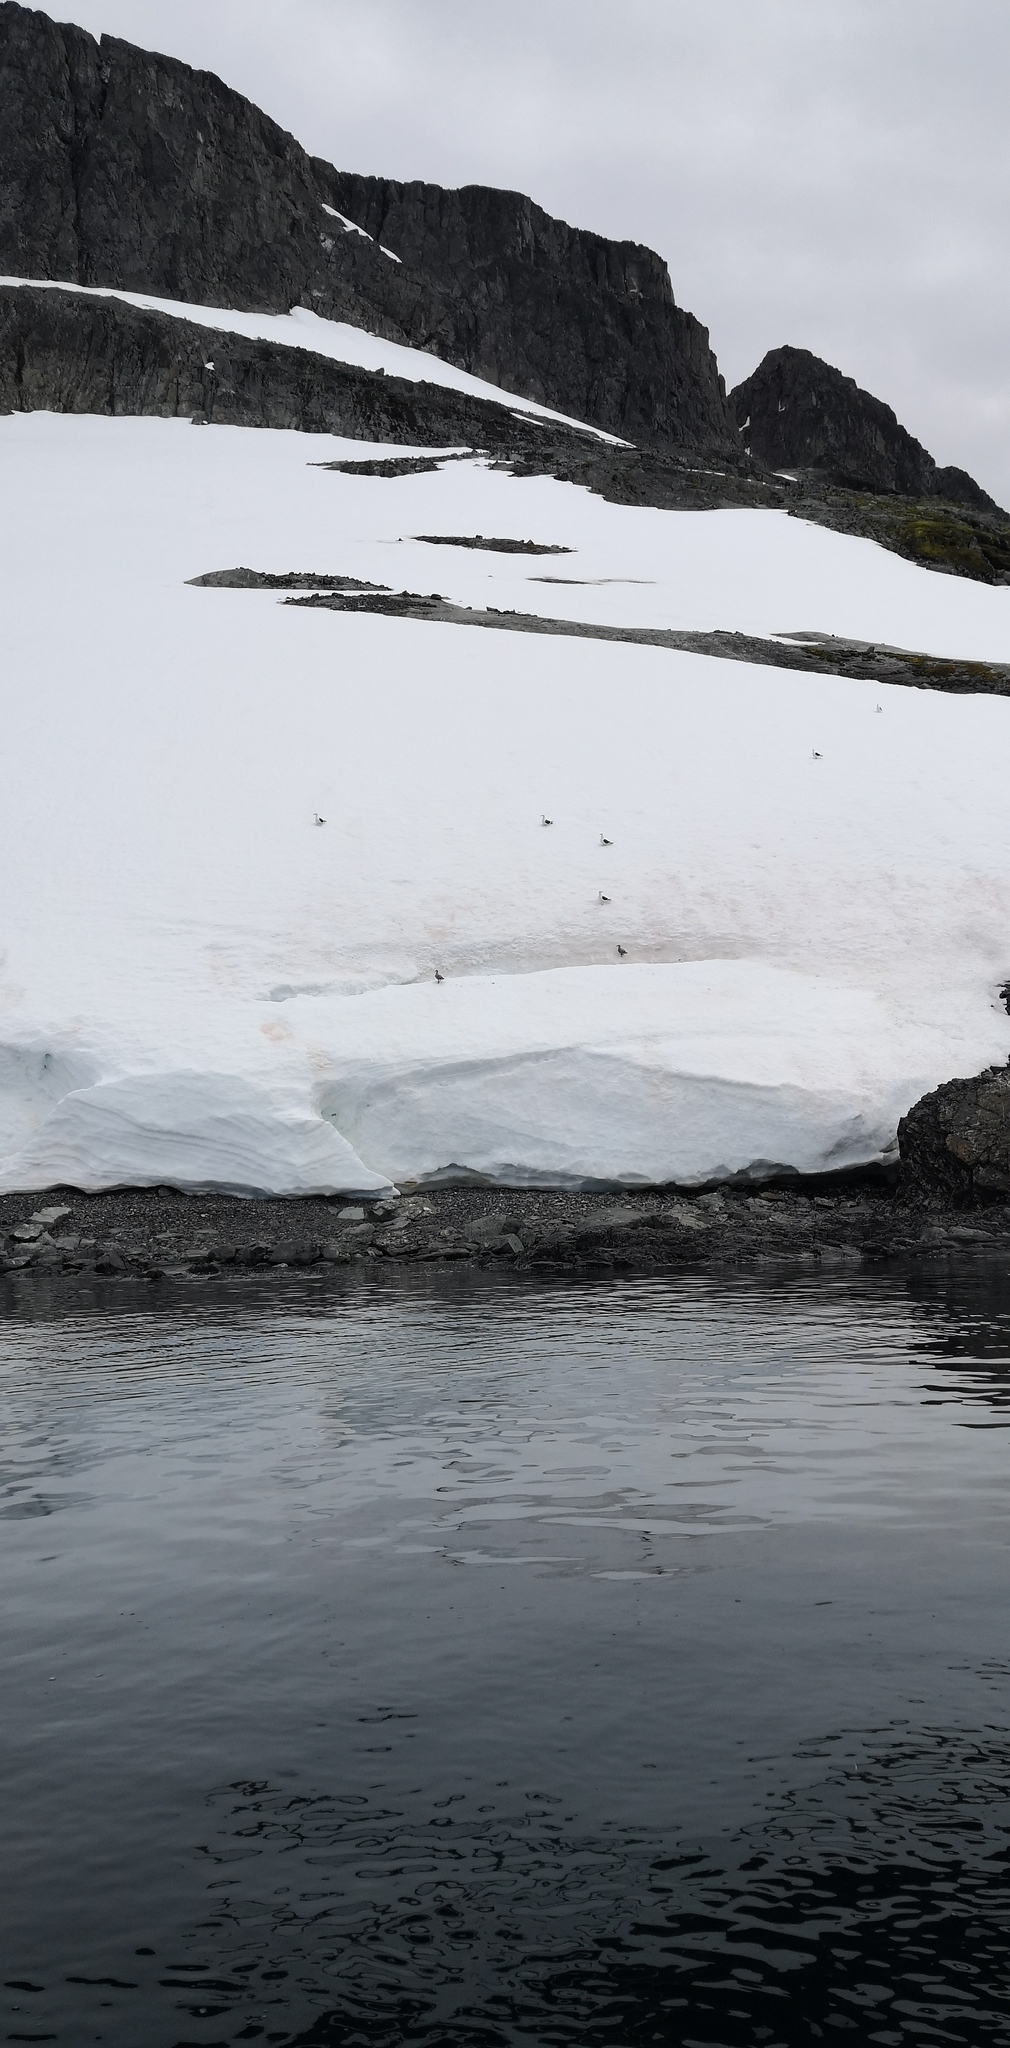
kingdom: Animalia
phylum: Chordata
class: Aves
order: Charadriiformes
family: Laridae
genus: Larus
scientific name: Larus dominicanus
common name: Kelp gull
